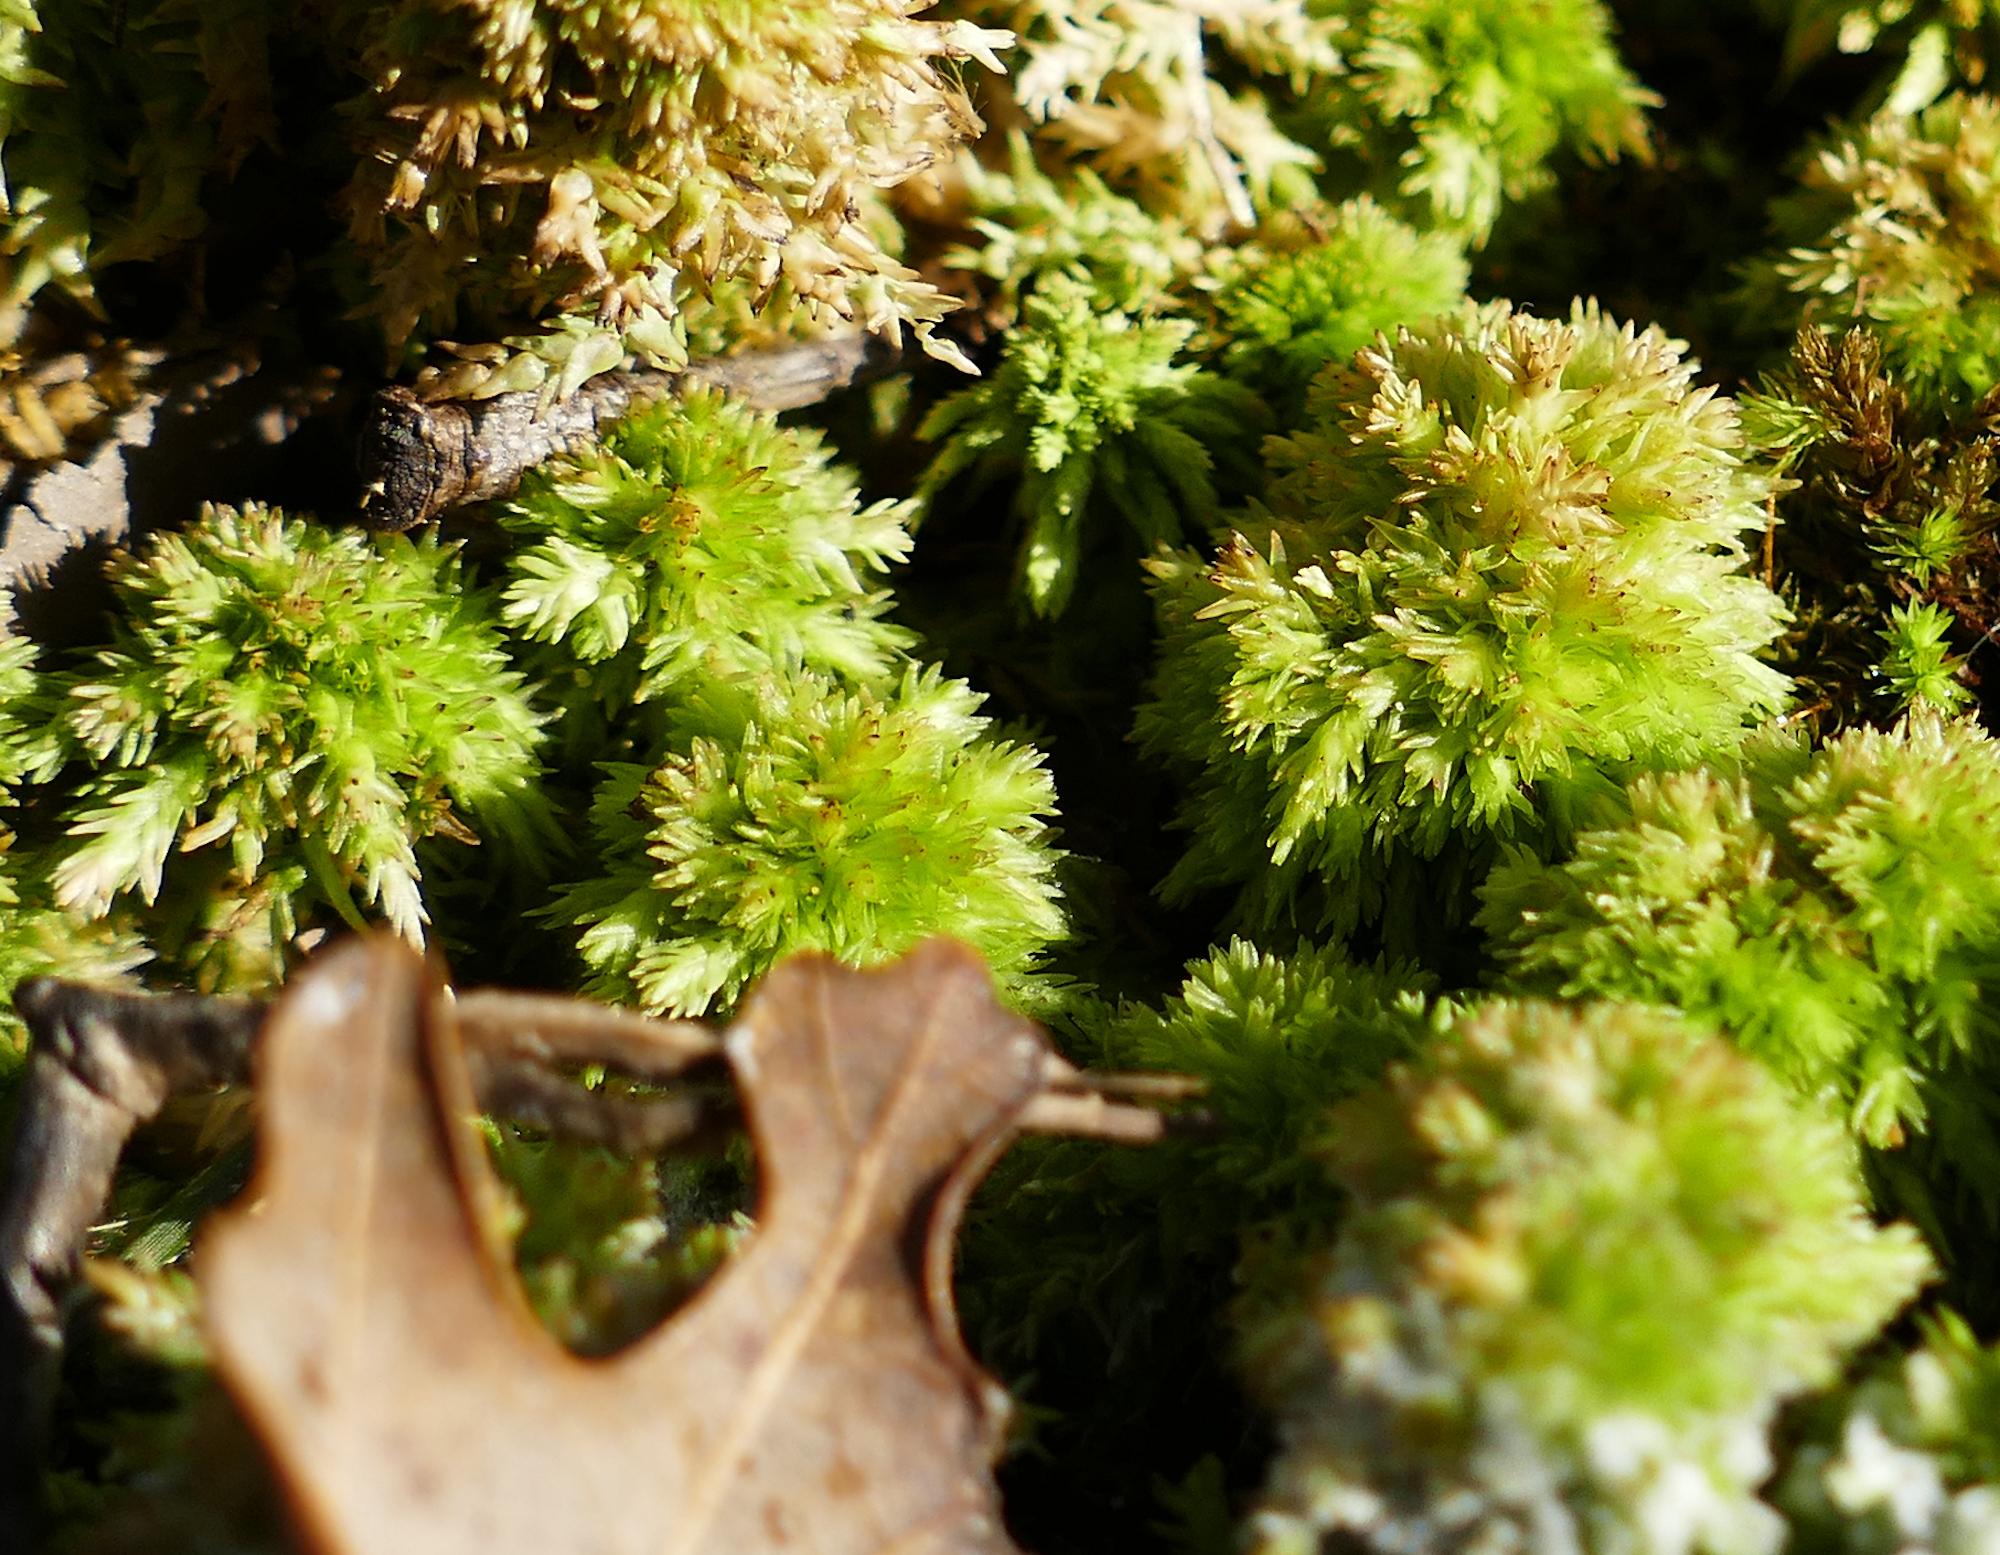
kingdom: Plantae
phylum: Bryophyta
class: Sphagnopsida
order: Sphagnales
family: Sphagnaceae
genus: Sphagnum
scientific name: Sphagnum compactum
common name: Compact peat moss
